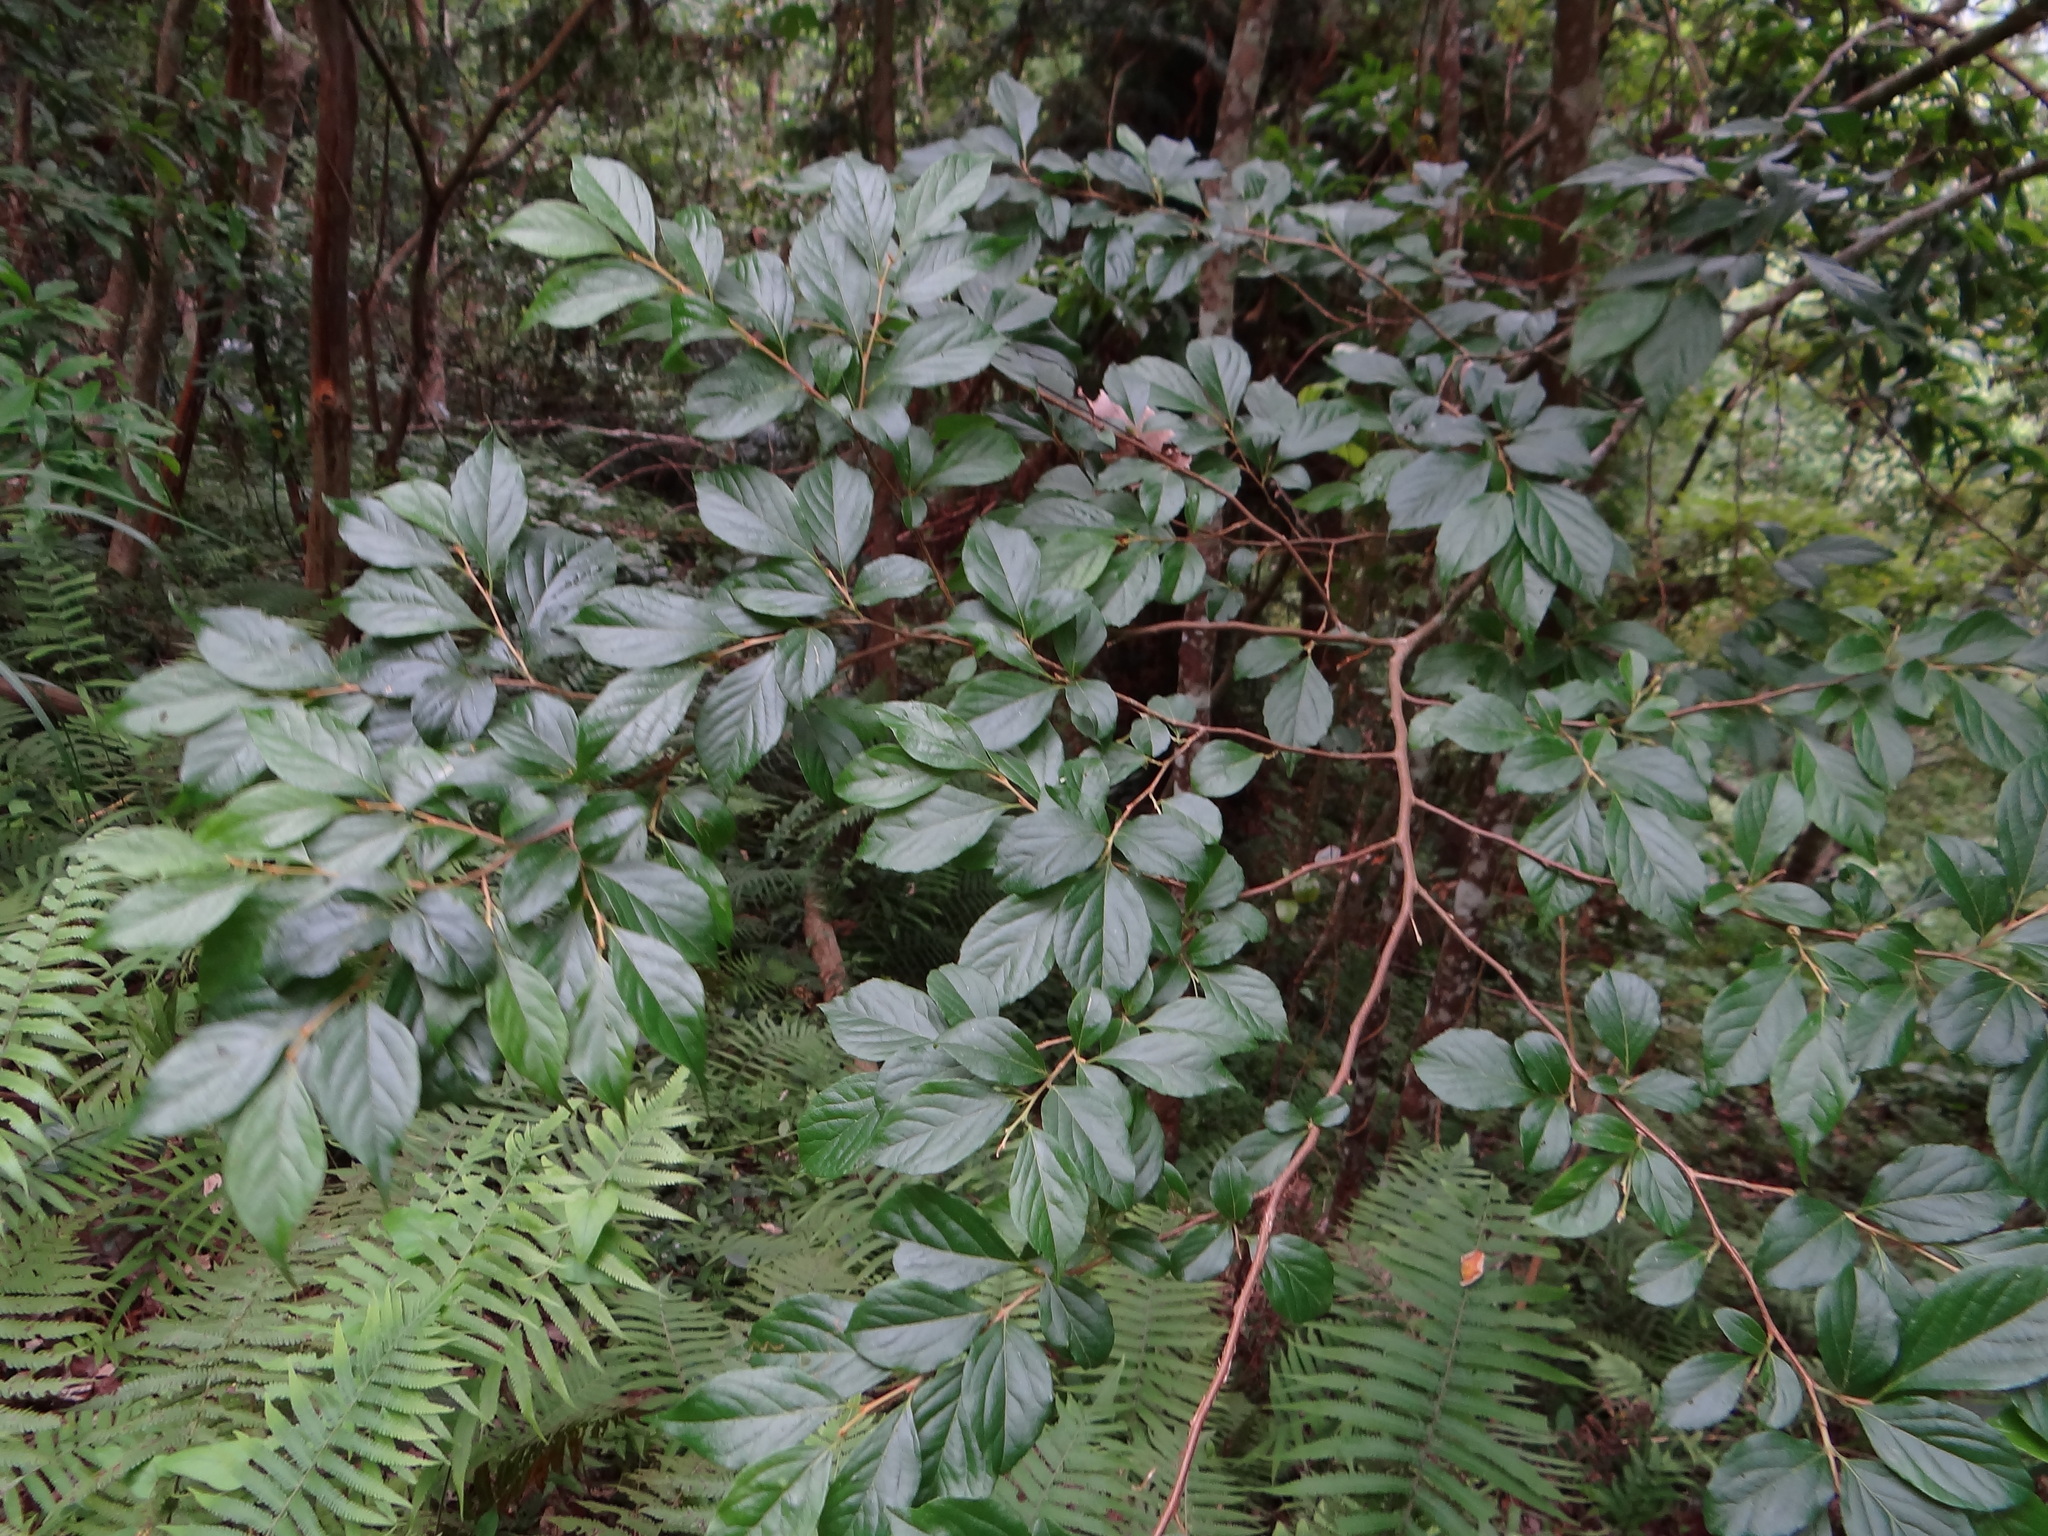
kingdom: Plantae
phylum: Tracheophyta
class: Magnoliopsida
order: Ericales
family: Styracaceae
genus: Styrax
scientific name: Styrax formosanus
